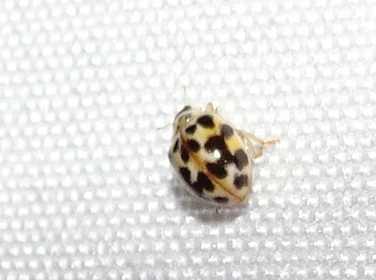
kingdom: Animalia
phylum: Arthropoda
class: Insecta
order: Coleoptera
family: Coccinellidae
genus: Psyllobora
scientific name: Psyllobora vigintimaculata
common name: Ladybird beetle
